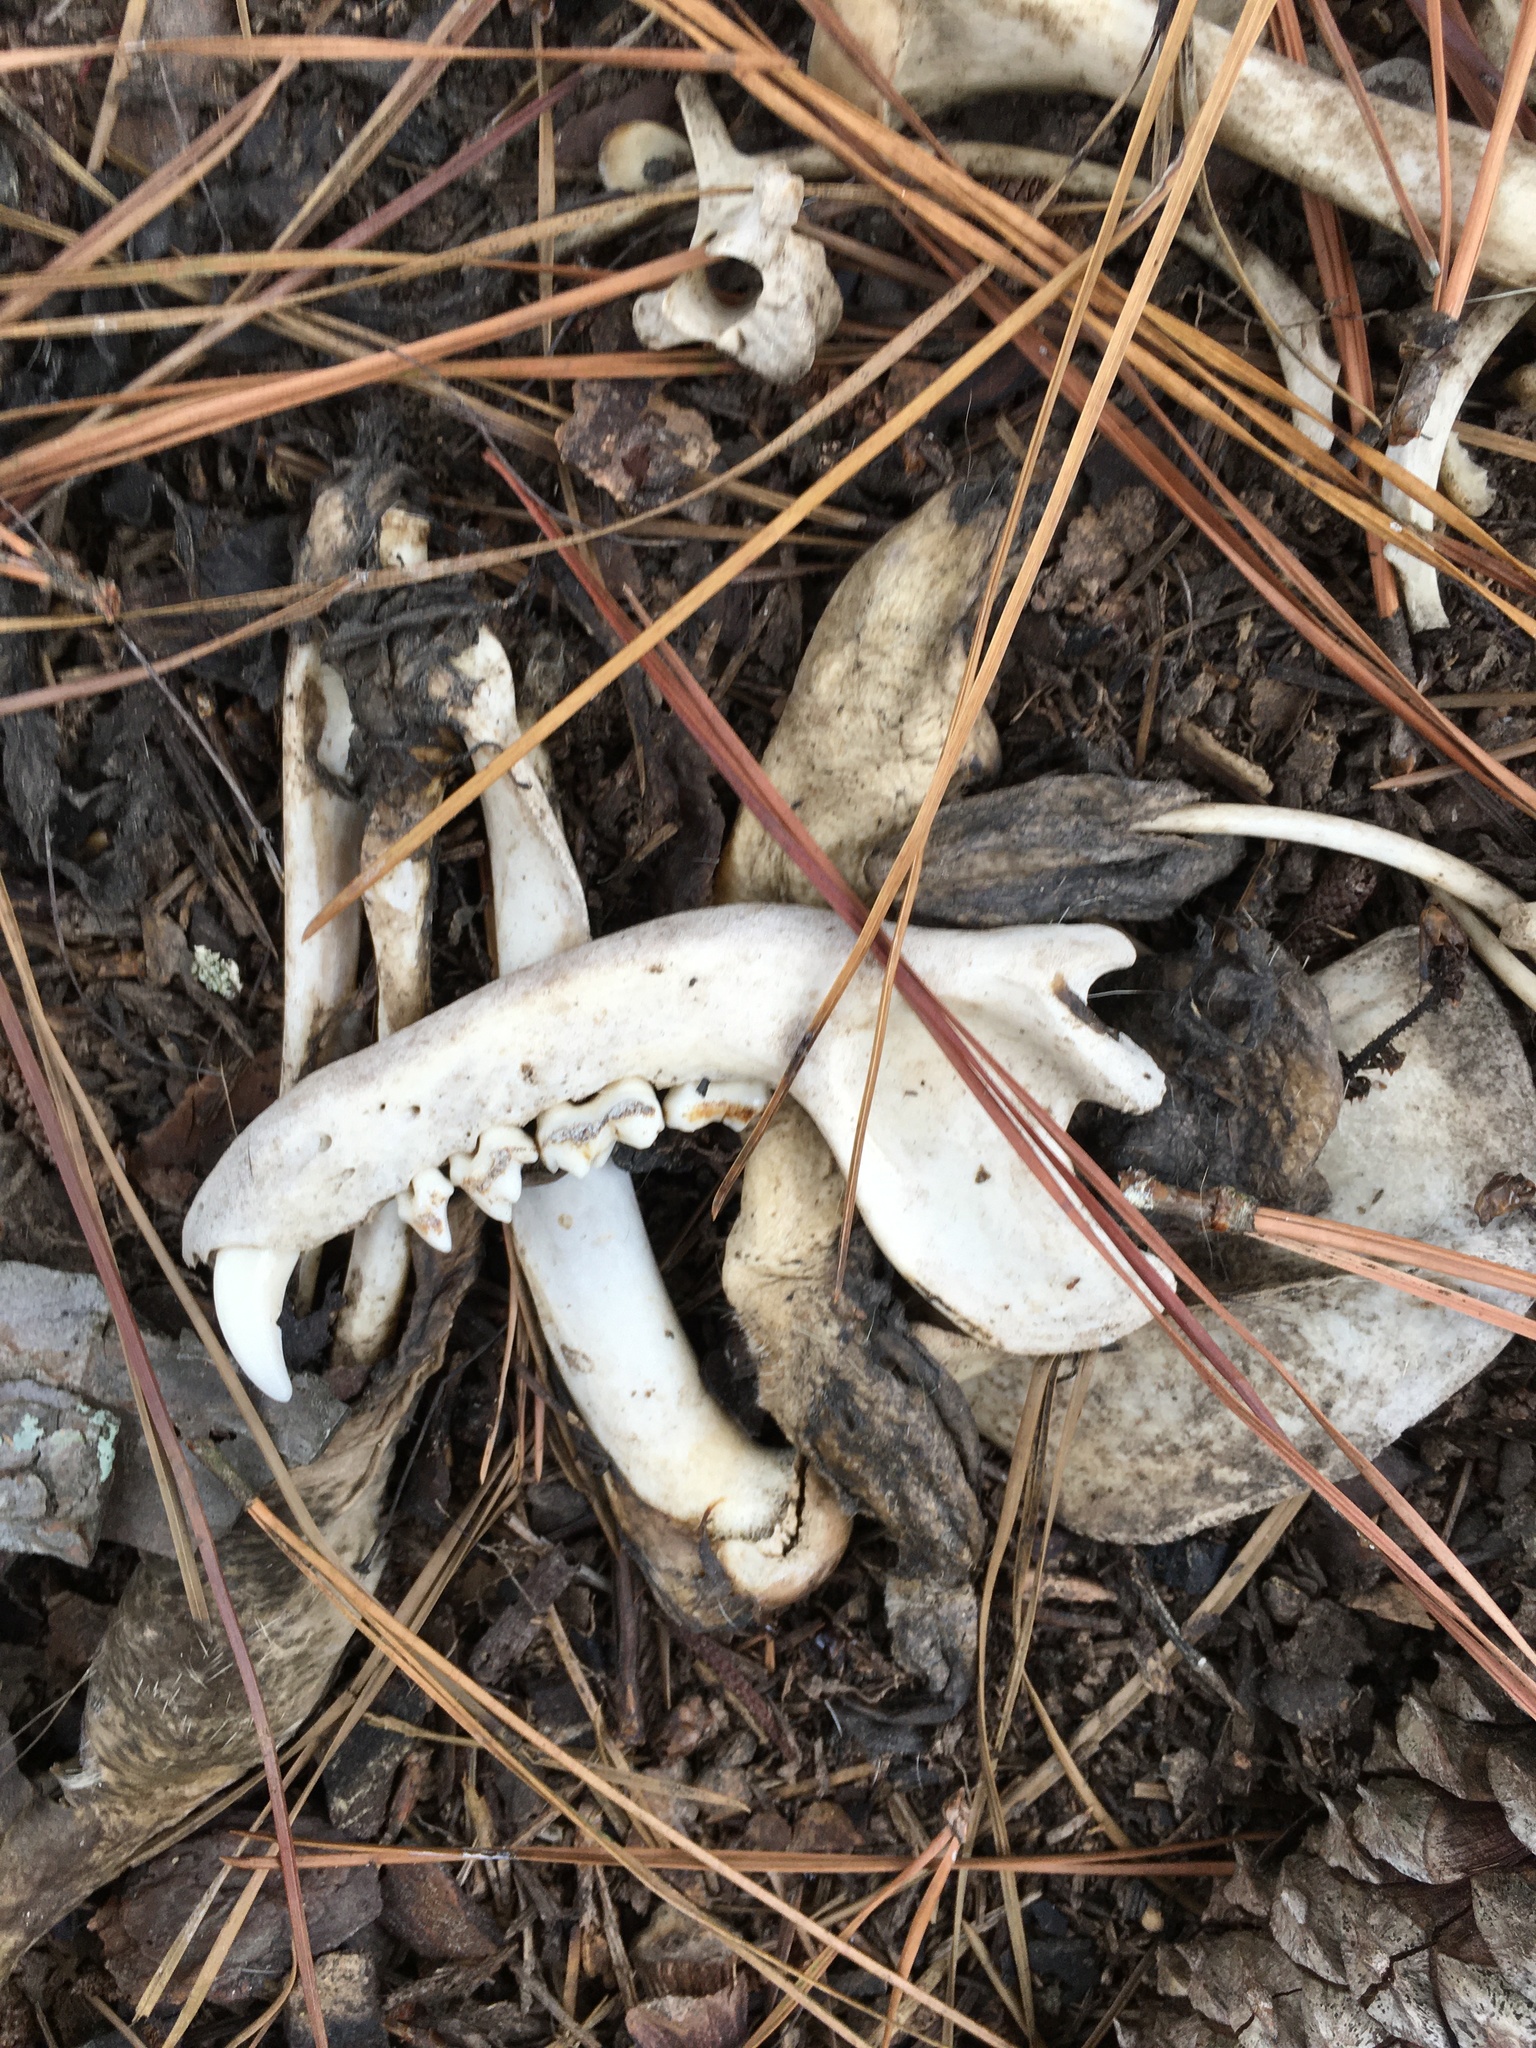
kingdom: Animalia
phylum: Chordata
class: Mammalia
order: Carnivora
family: Procyonidae
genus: Procyon
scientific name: Procyon lotor
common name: Raccoon
